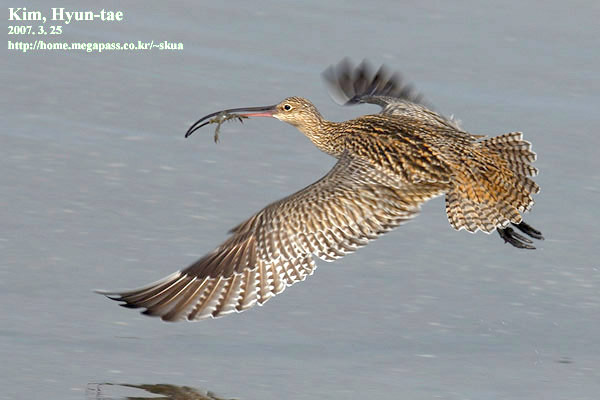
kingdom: Animalia
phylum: Chordata
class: Aves
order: Charadriiformes
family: Scolopacidae
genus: Numenius
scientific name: Numenius madagascariensis
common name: Far eastern curlew
